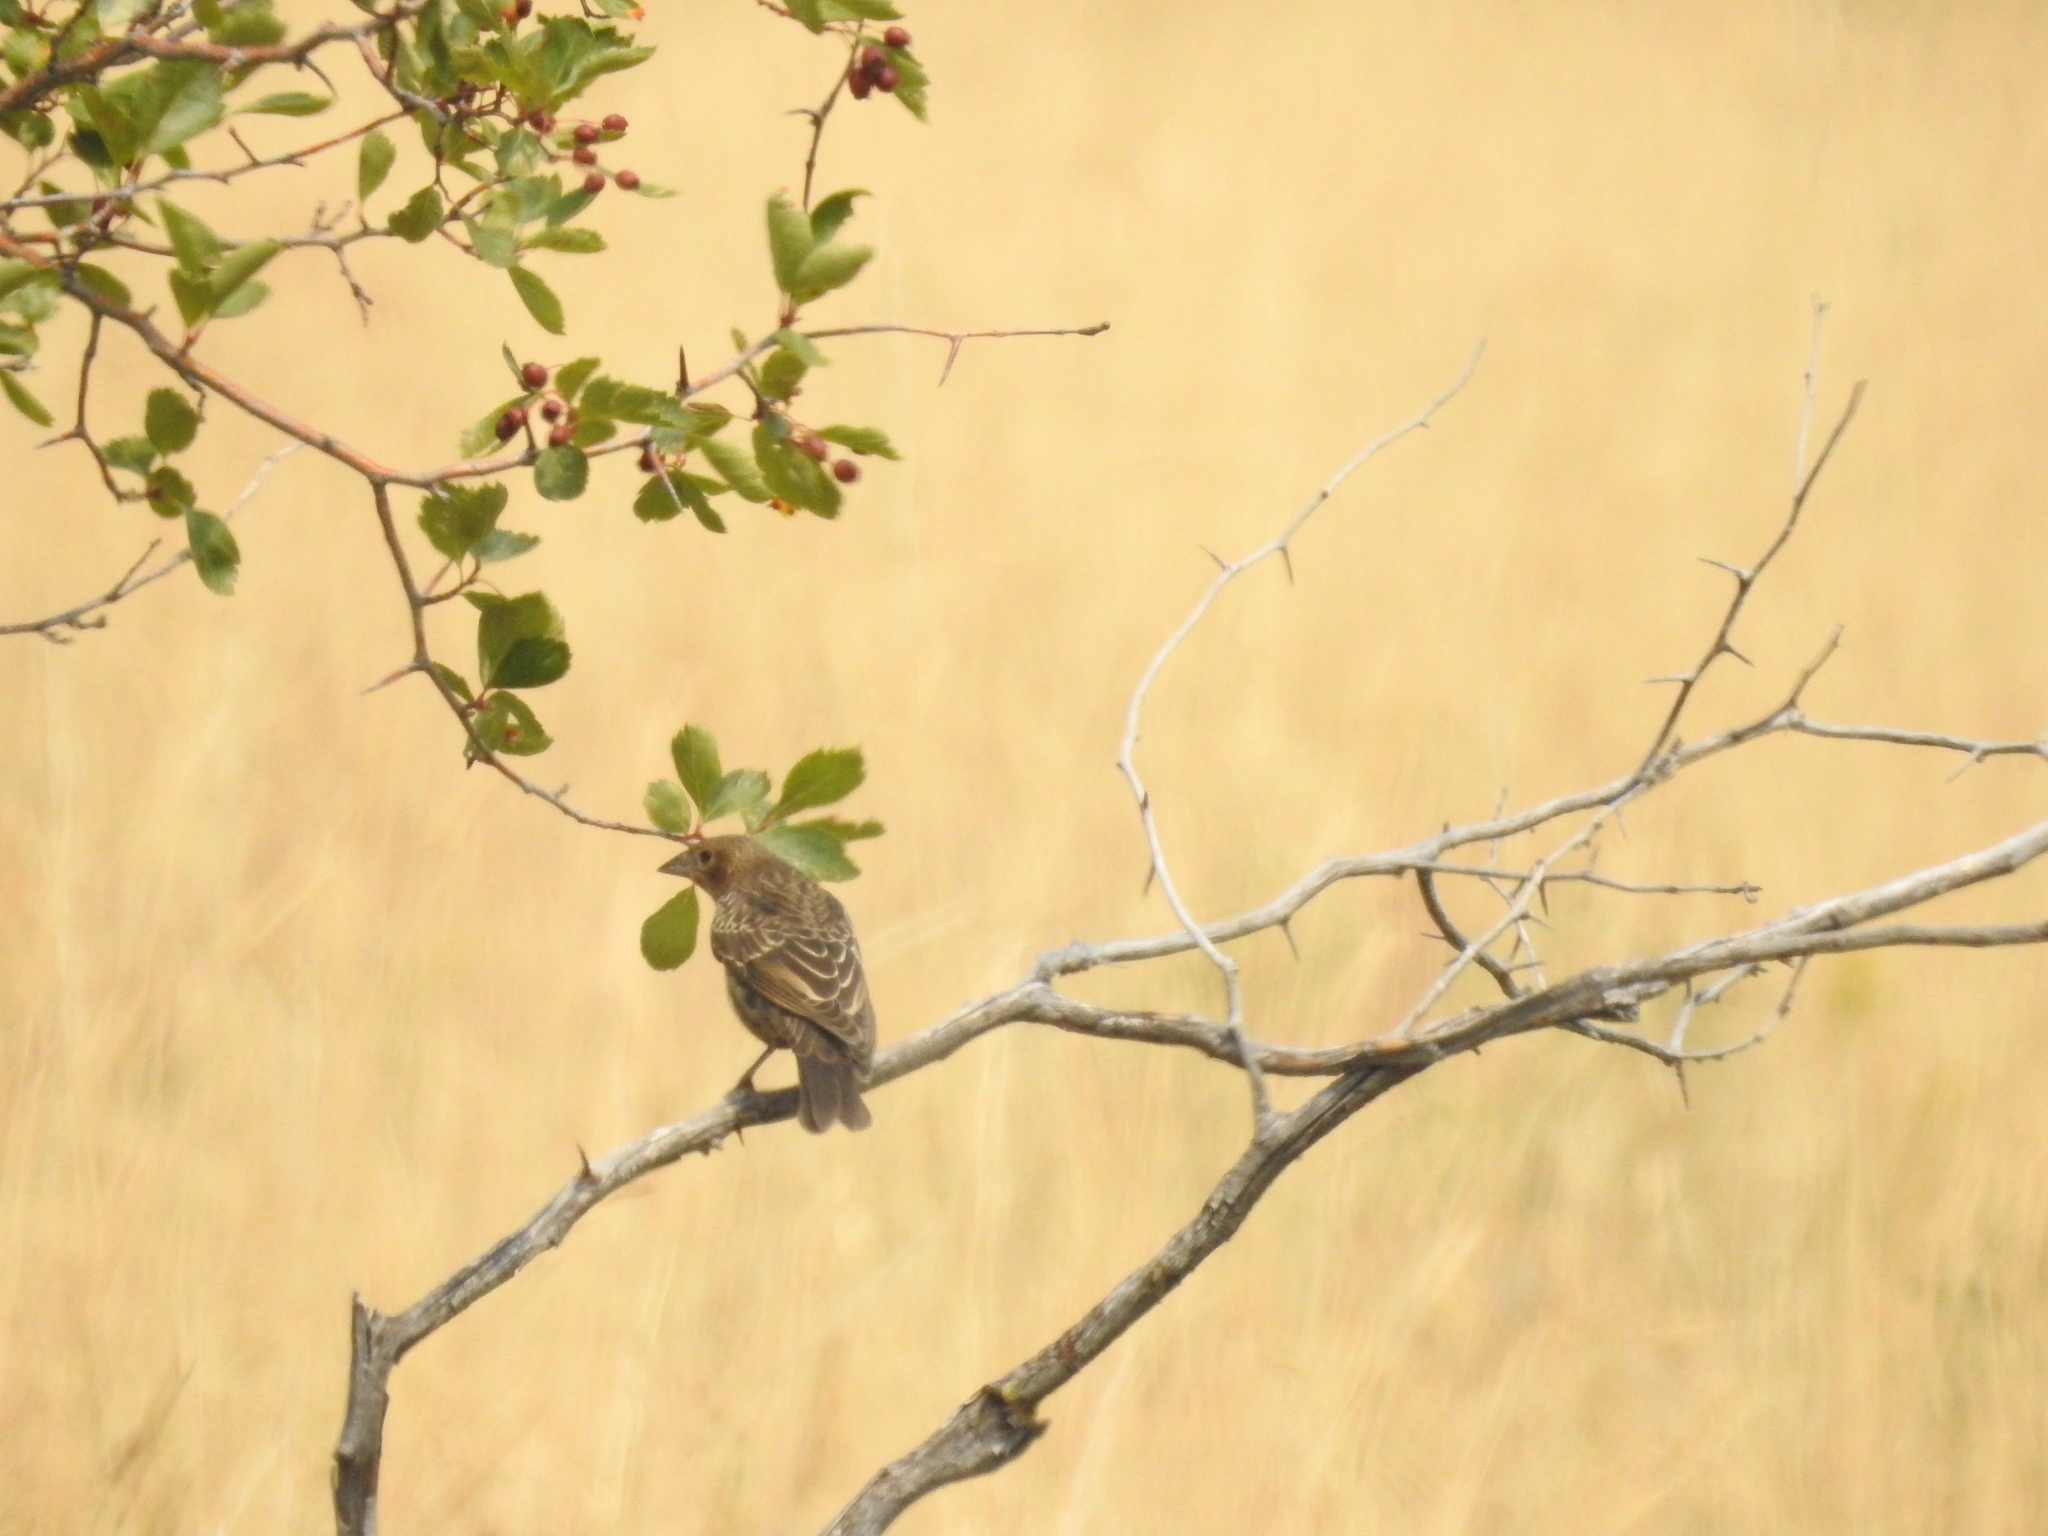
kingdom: Animalia
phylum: Chordata
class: Aves
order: Passeriformes
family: Icteridae
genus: Molothrus
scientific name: Molothrus ater
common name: Brown-headed cowbird
